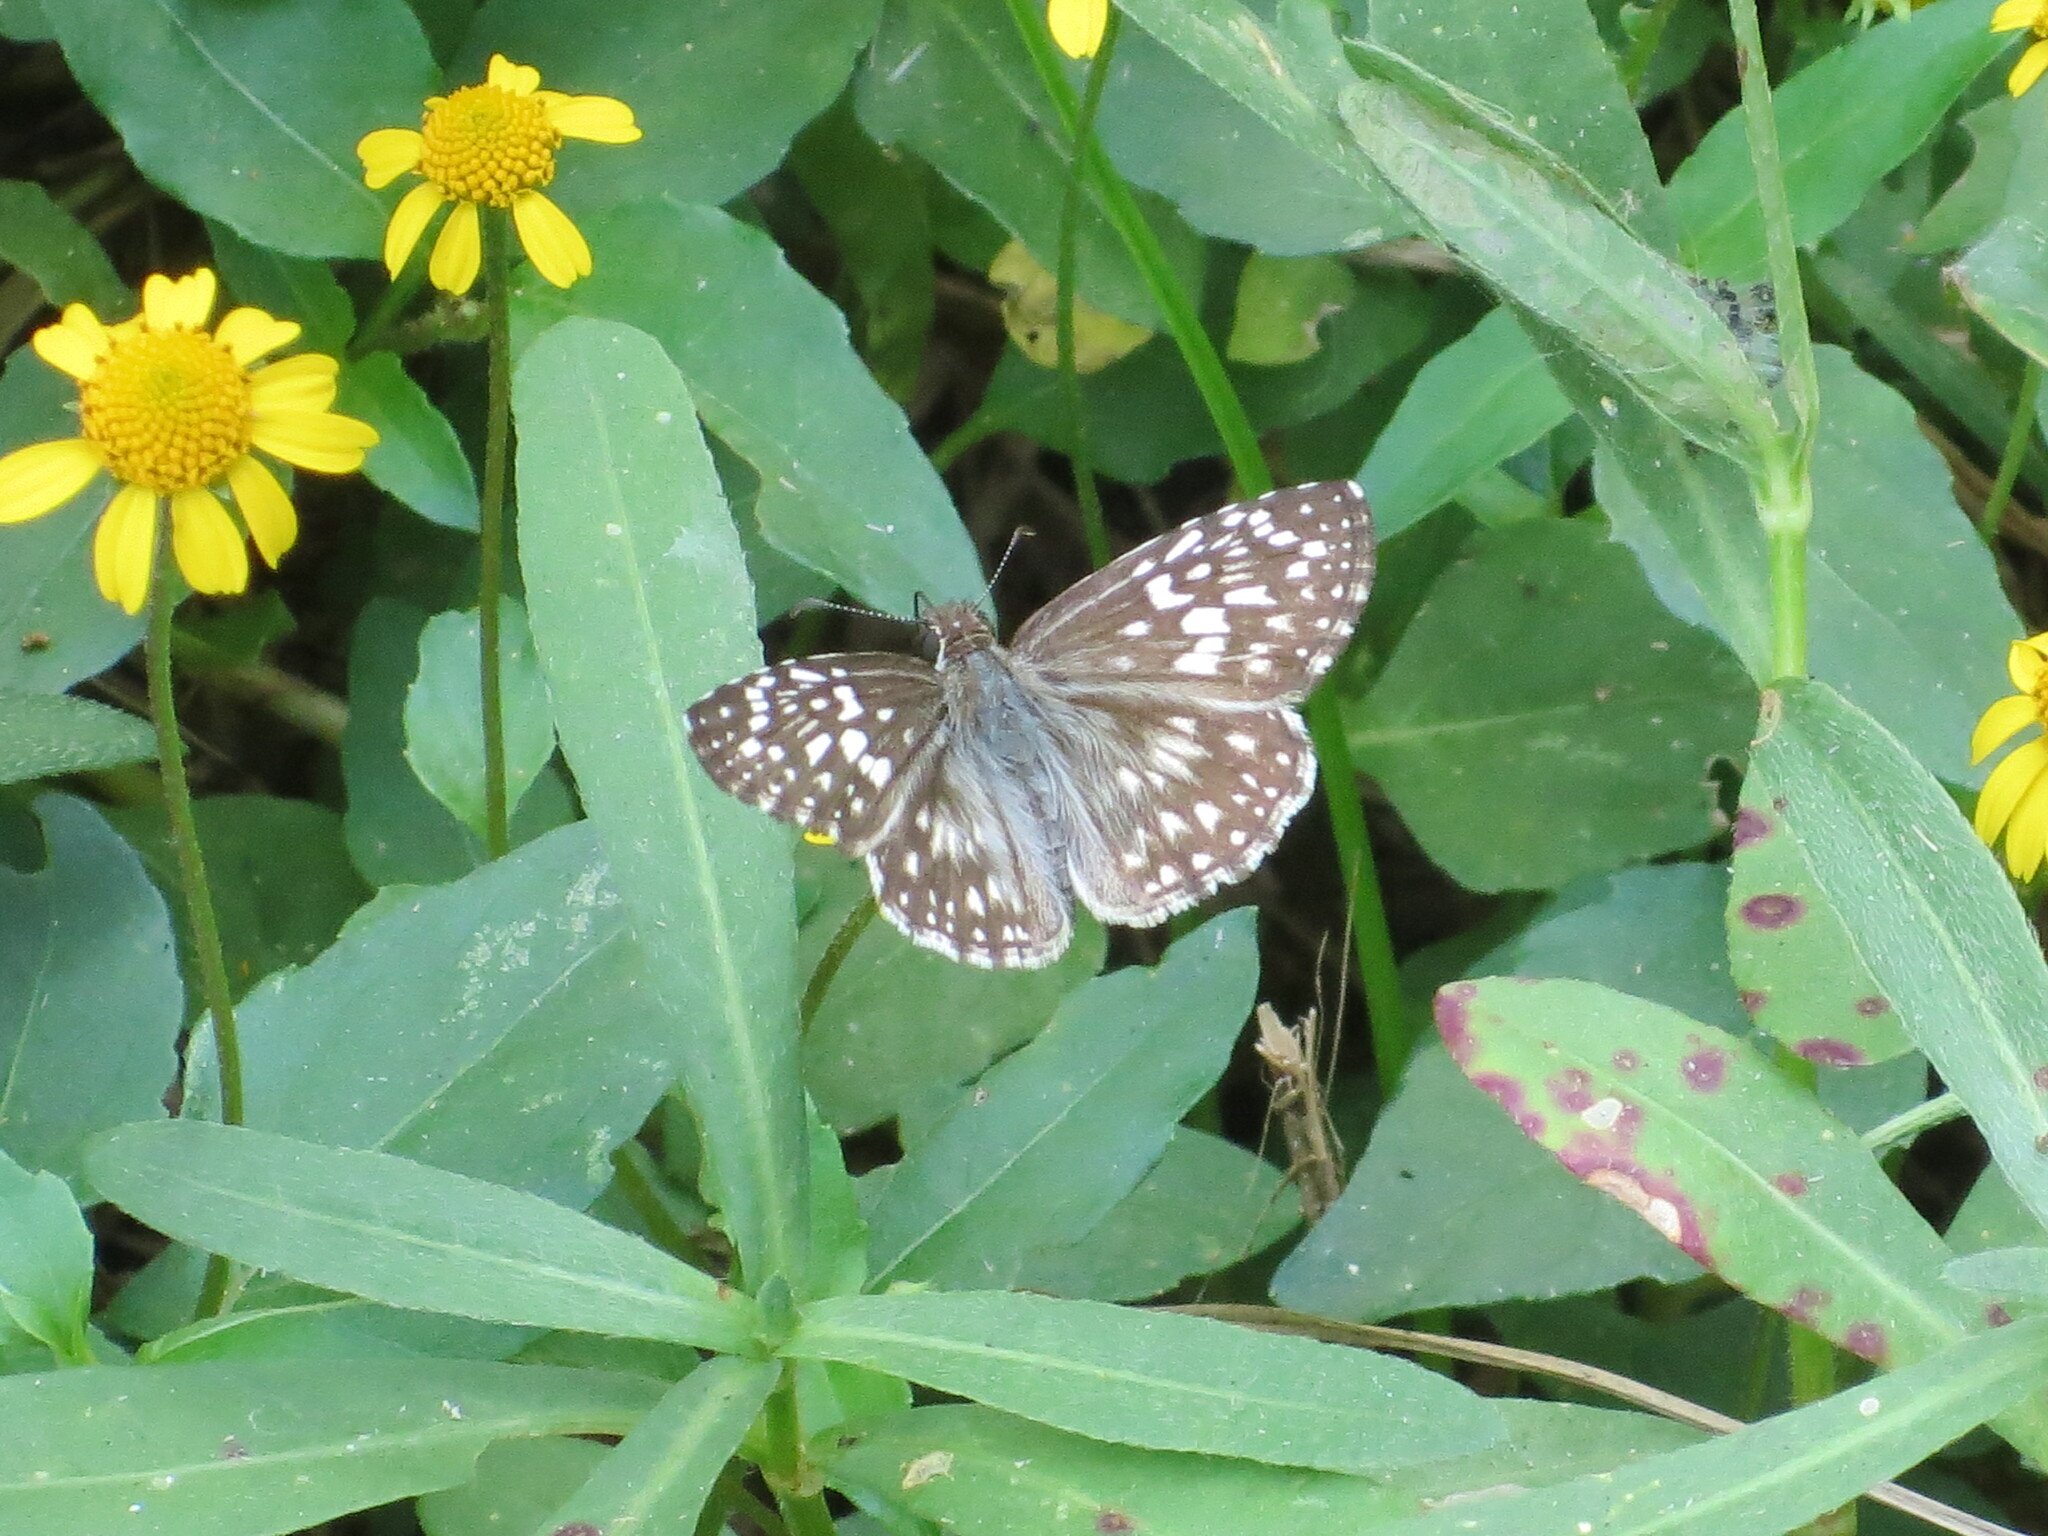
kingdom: Animalia
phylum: Arthropoda
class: Insecta
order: Lepidoptera
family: Hesperiidae
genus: Pyrgus
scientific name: Pyrgus oileus
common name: Tropical checkered-skipper
